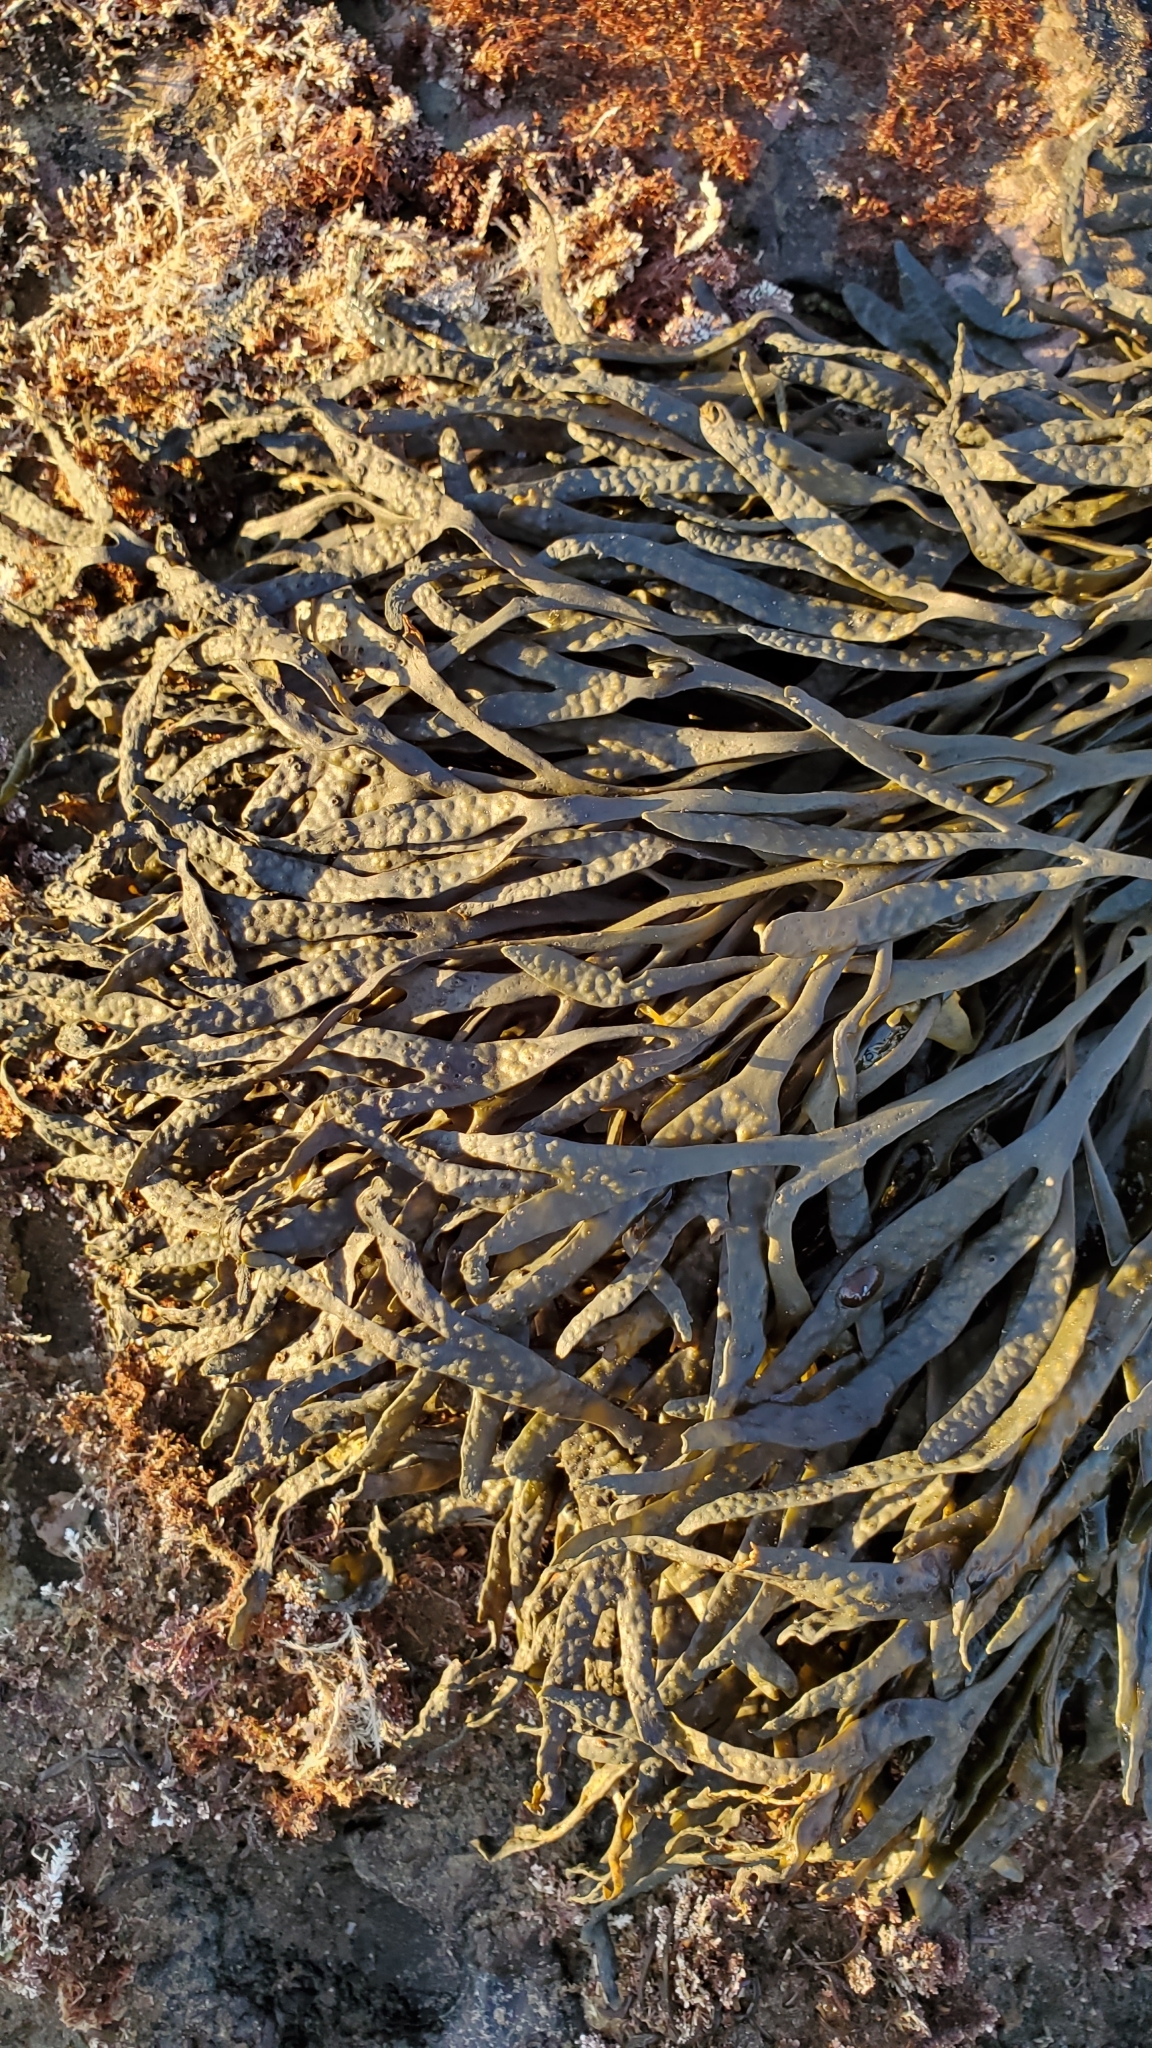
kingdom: Chromista
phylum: Ochrophyta
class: Phaeophyceae
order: Fucales
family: Fucaceae
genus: Silvetia
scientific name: Silvetia
